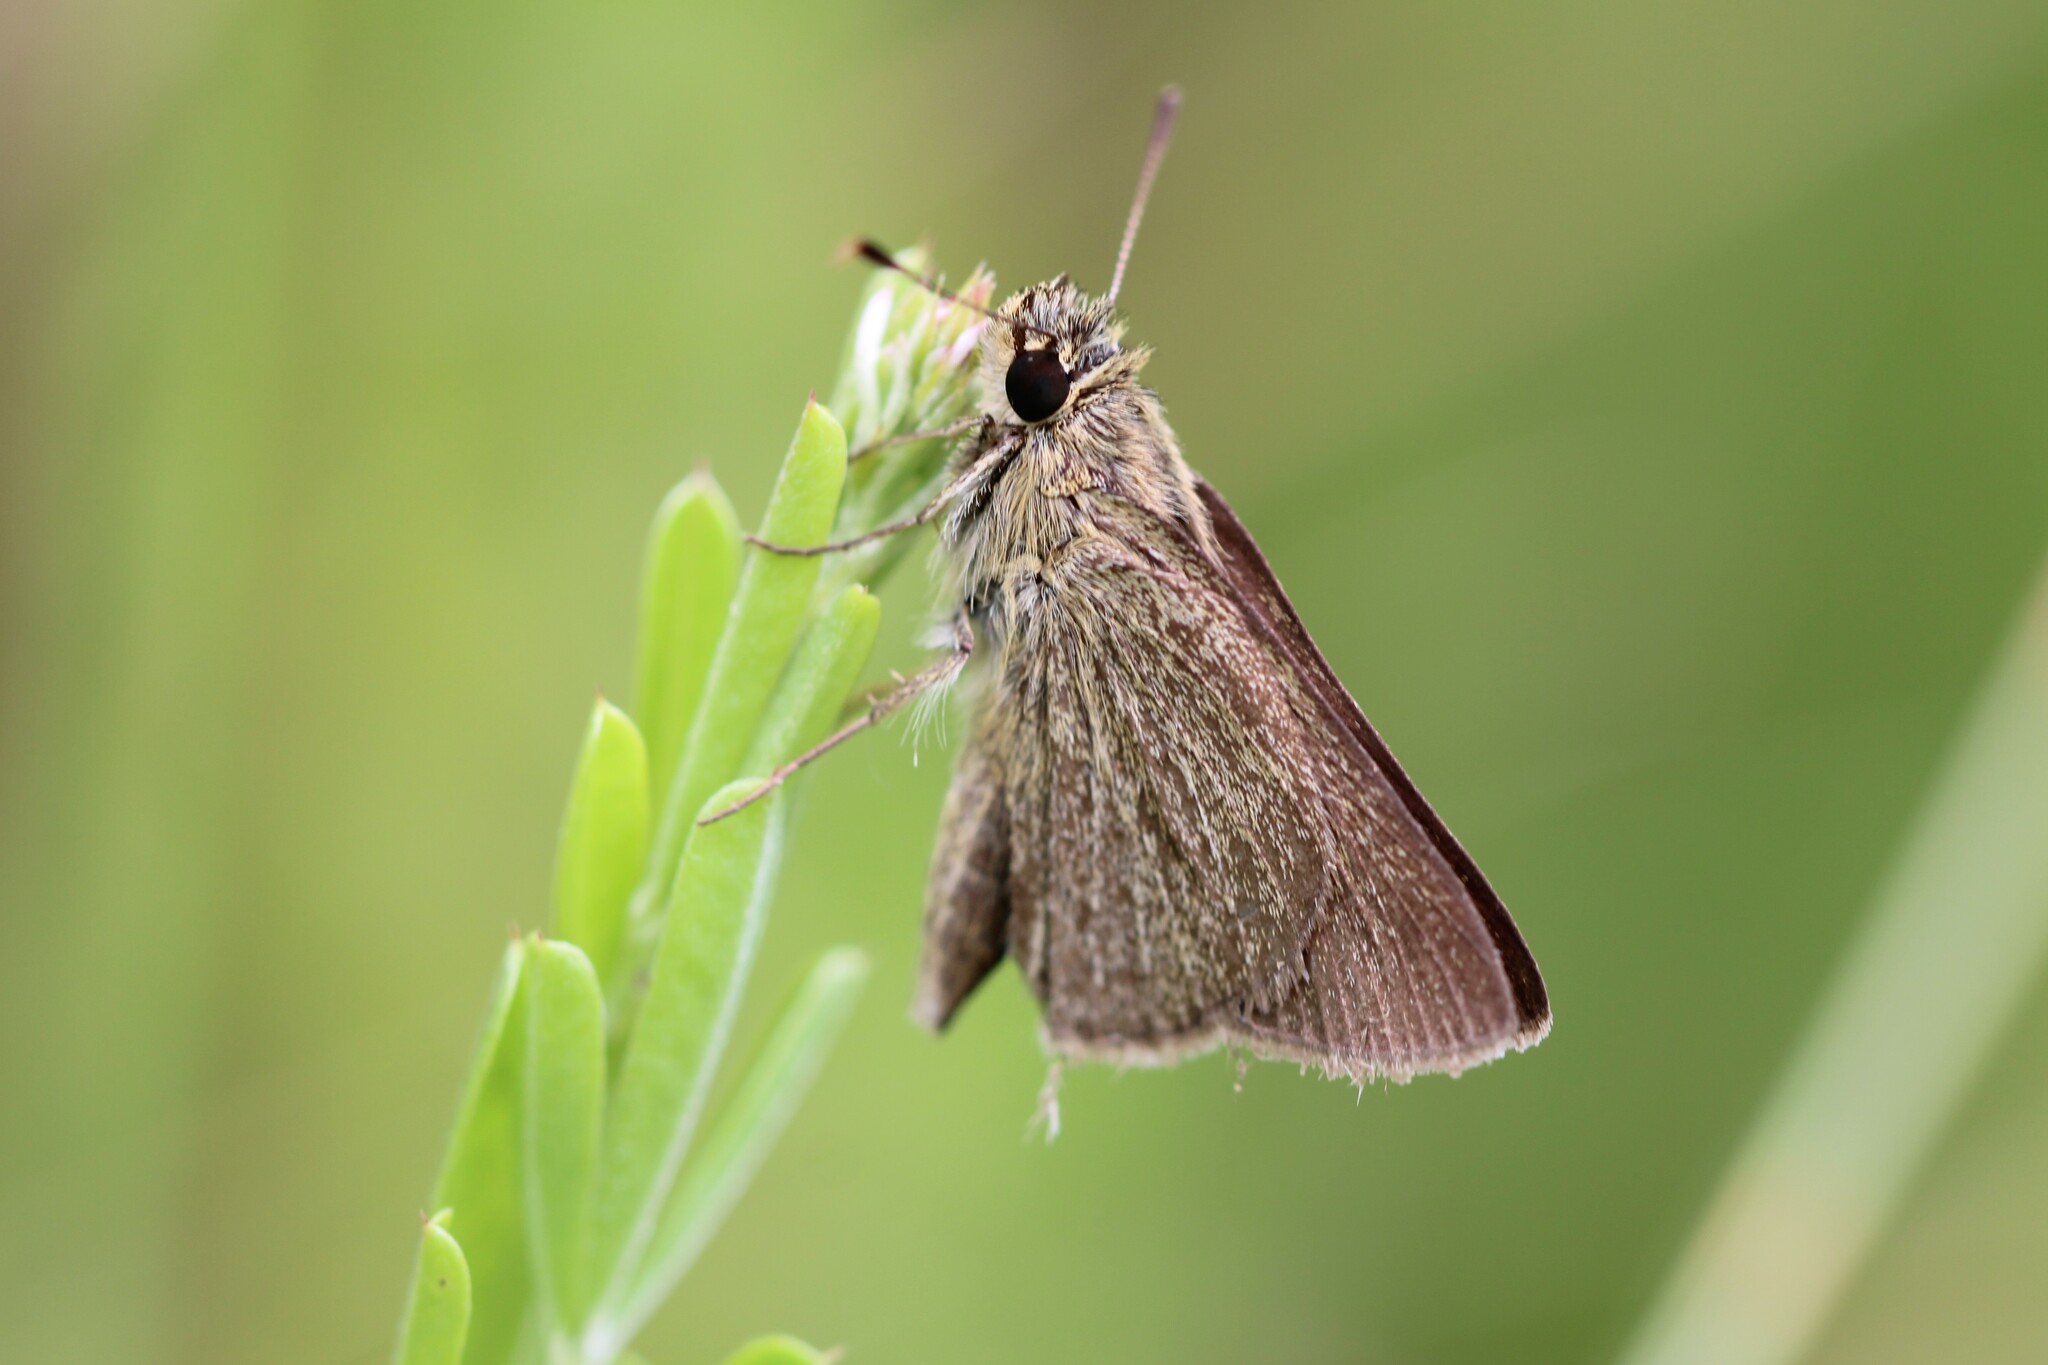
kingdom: Animalia
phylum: Arthropoda
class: Insecta
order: Lepidoptera
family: Hesperiidae
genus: Nastra
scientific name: Nastra lherminier
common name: Swarthy skipper
